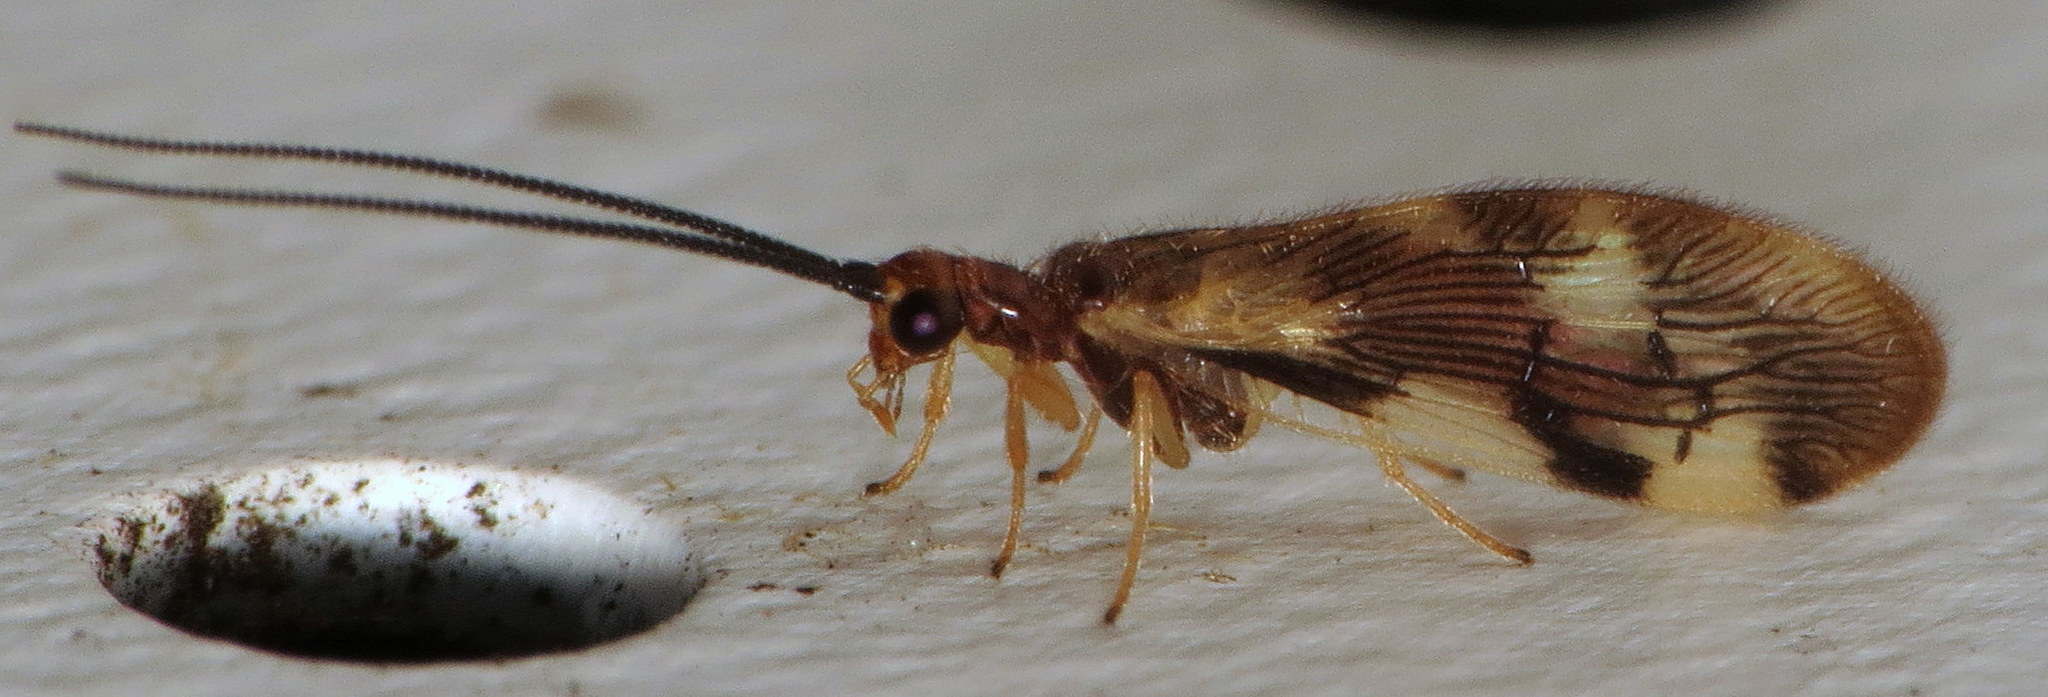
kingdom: Animalia
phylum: Arthropoda
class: Insecta
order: Neuroptera
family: Sisyridae
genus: Climacia
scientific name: Climacia areolaris
